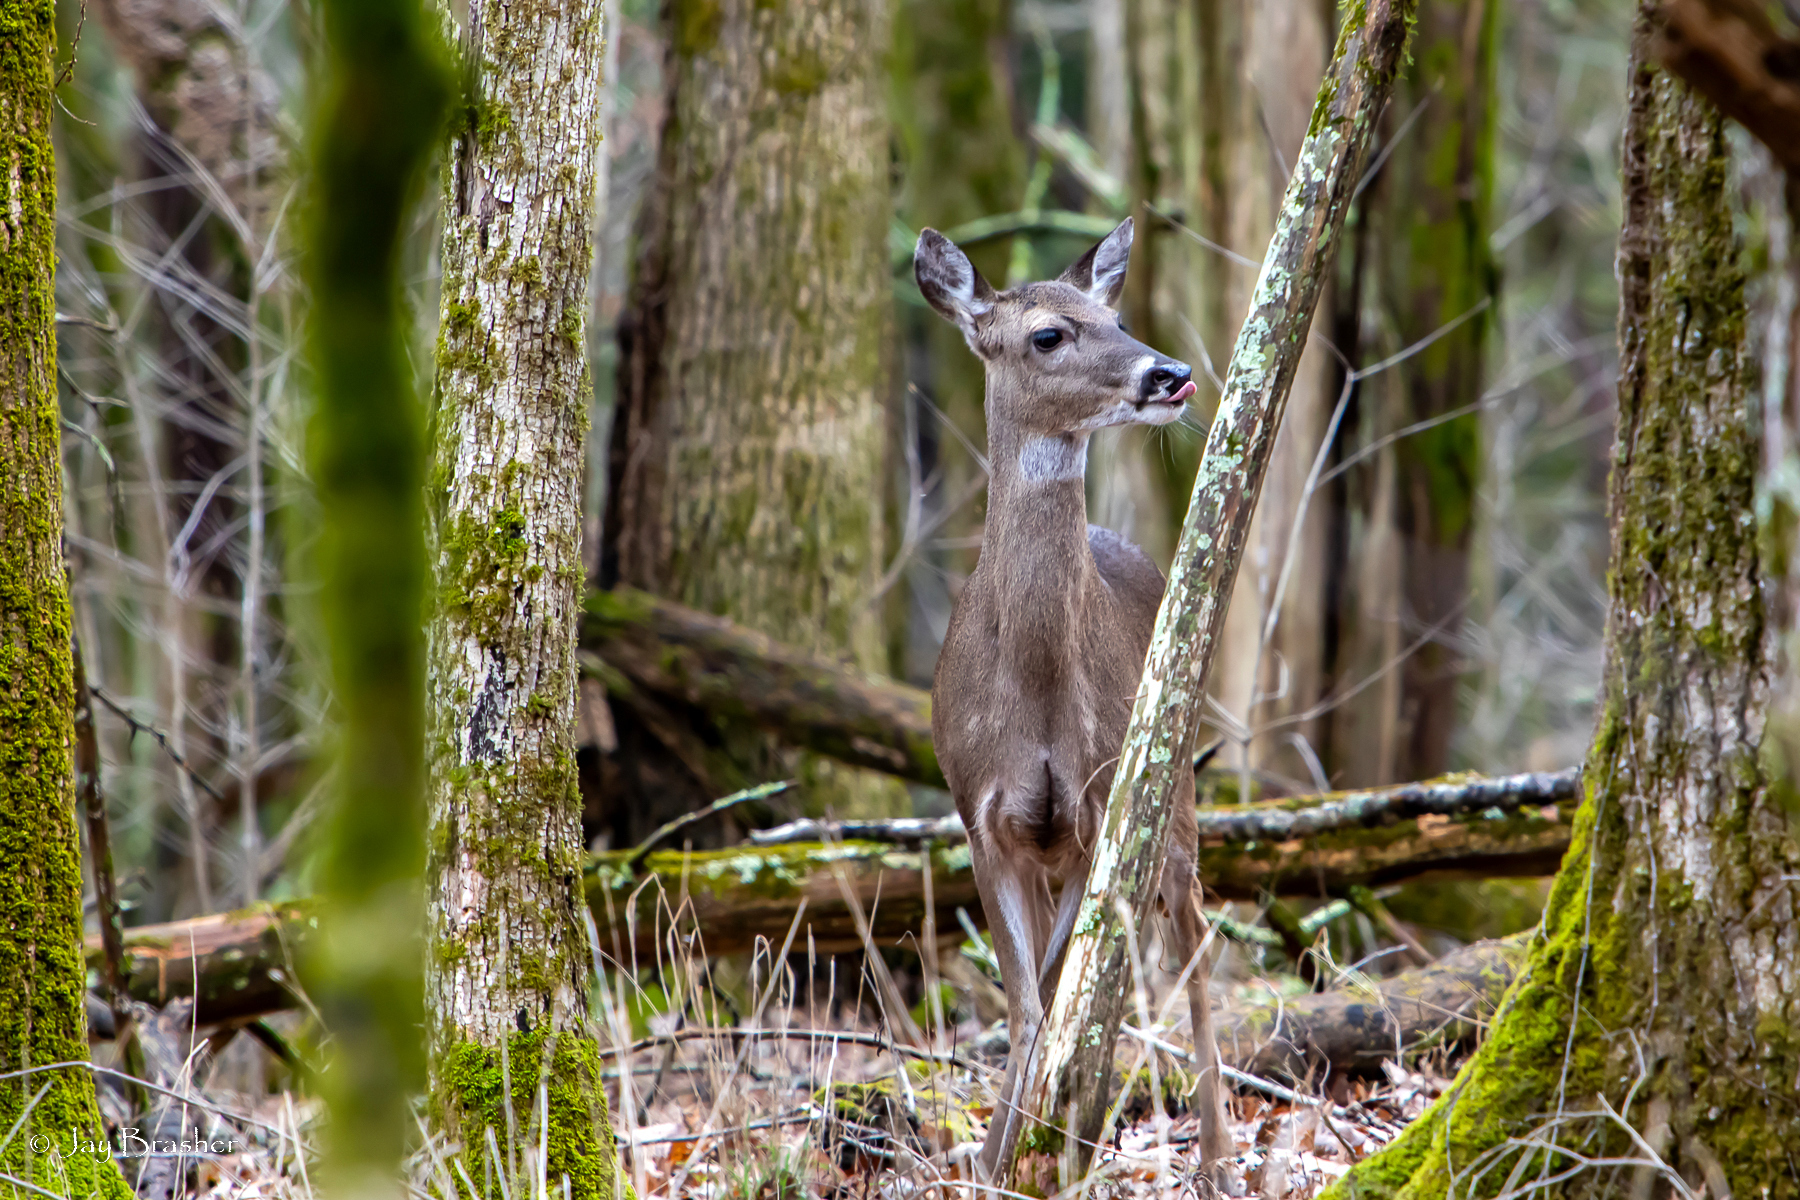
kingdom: Animalia
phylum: Chordata
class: Mammalia
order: Artiodactyla
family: Cervidae
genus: Odocoileus
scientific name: Odocoileus virginianus
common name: White-tailed deer
